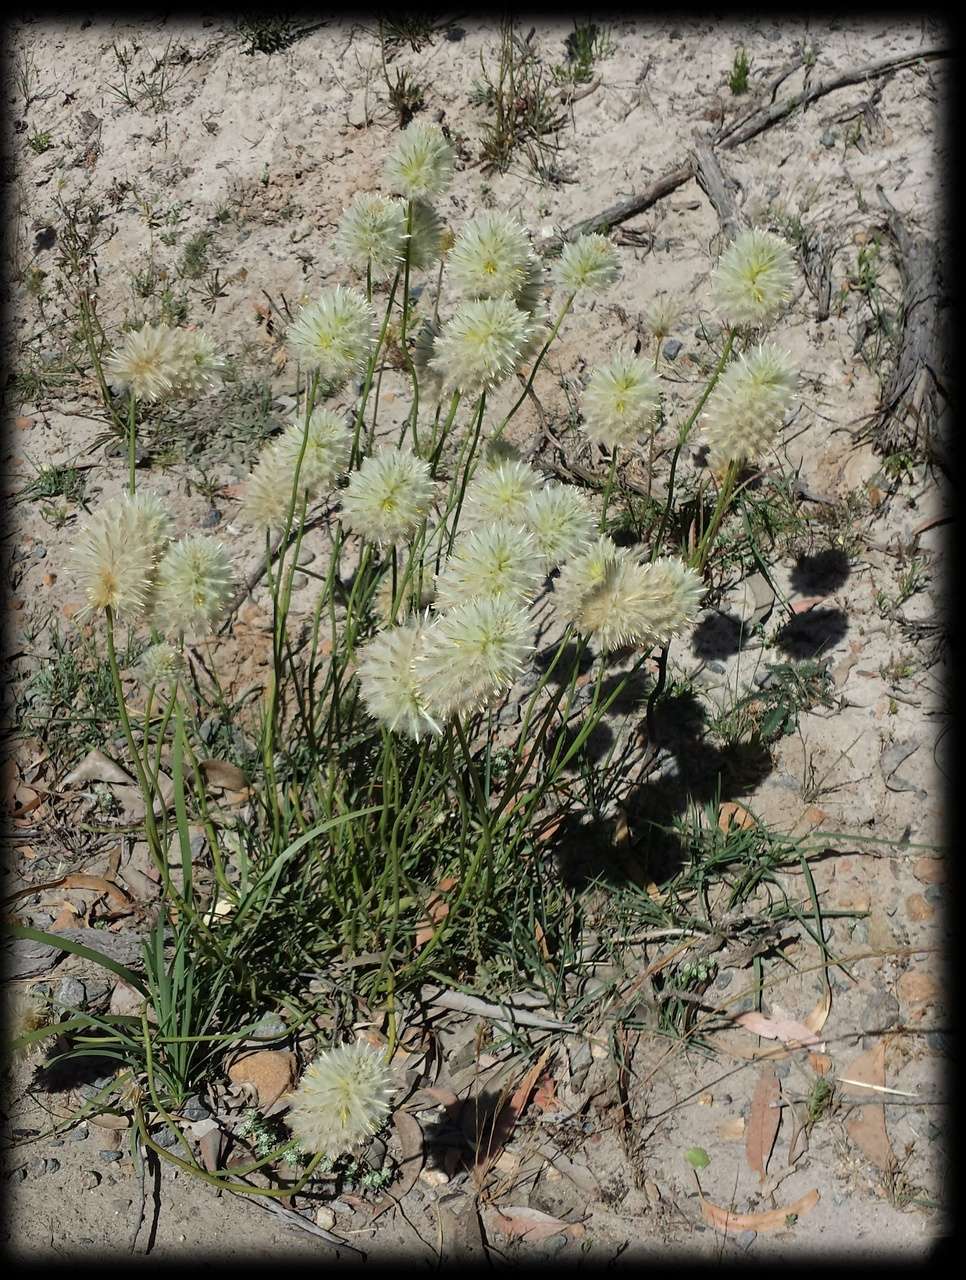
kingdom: Plantae
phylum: Tracheophyta
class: Magnoliopsida
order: Caryophyllales
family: Amaranthaceae
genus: Ptilotus
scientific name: Ptilotus macrocephalus
